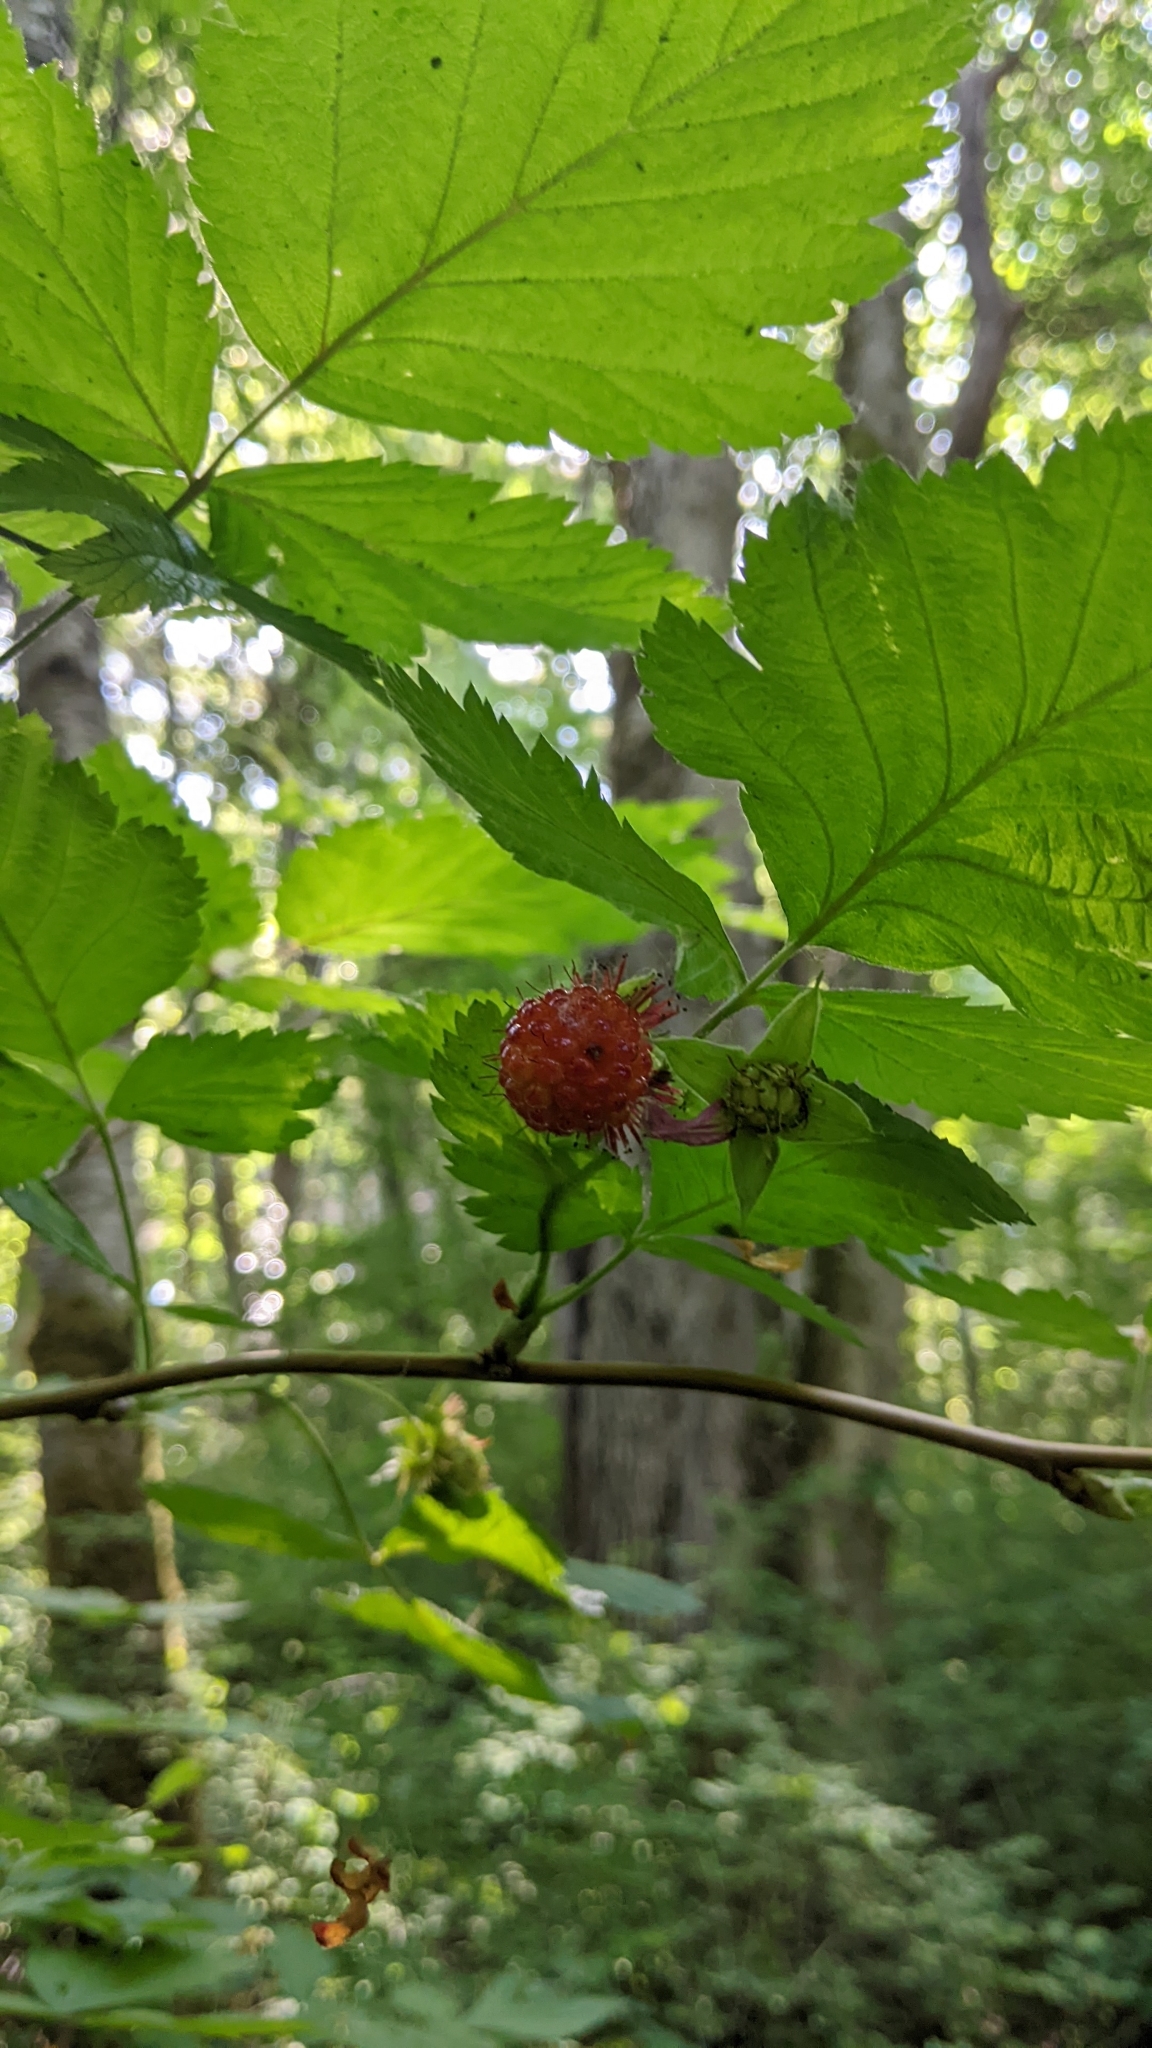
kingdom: Plantae
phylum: Tracheophyta
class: Magnoliopsida
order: Rosales
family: Rosaceae
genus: Rubus
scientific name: Rubus spectabilis
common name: Salmonberry
